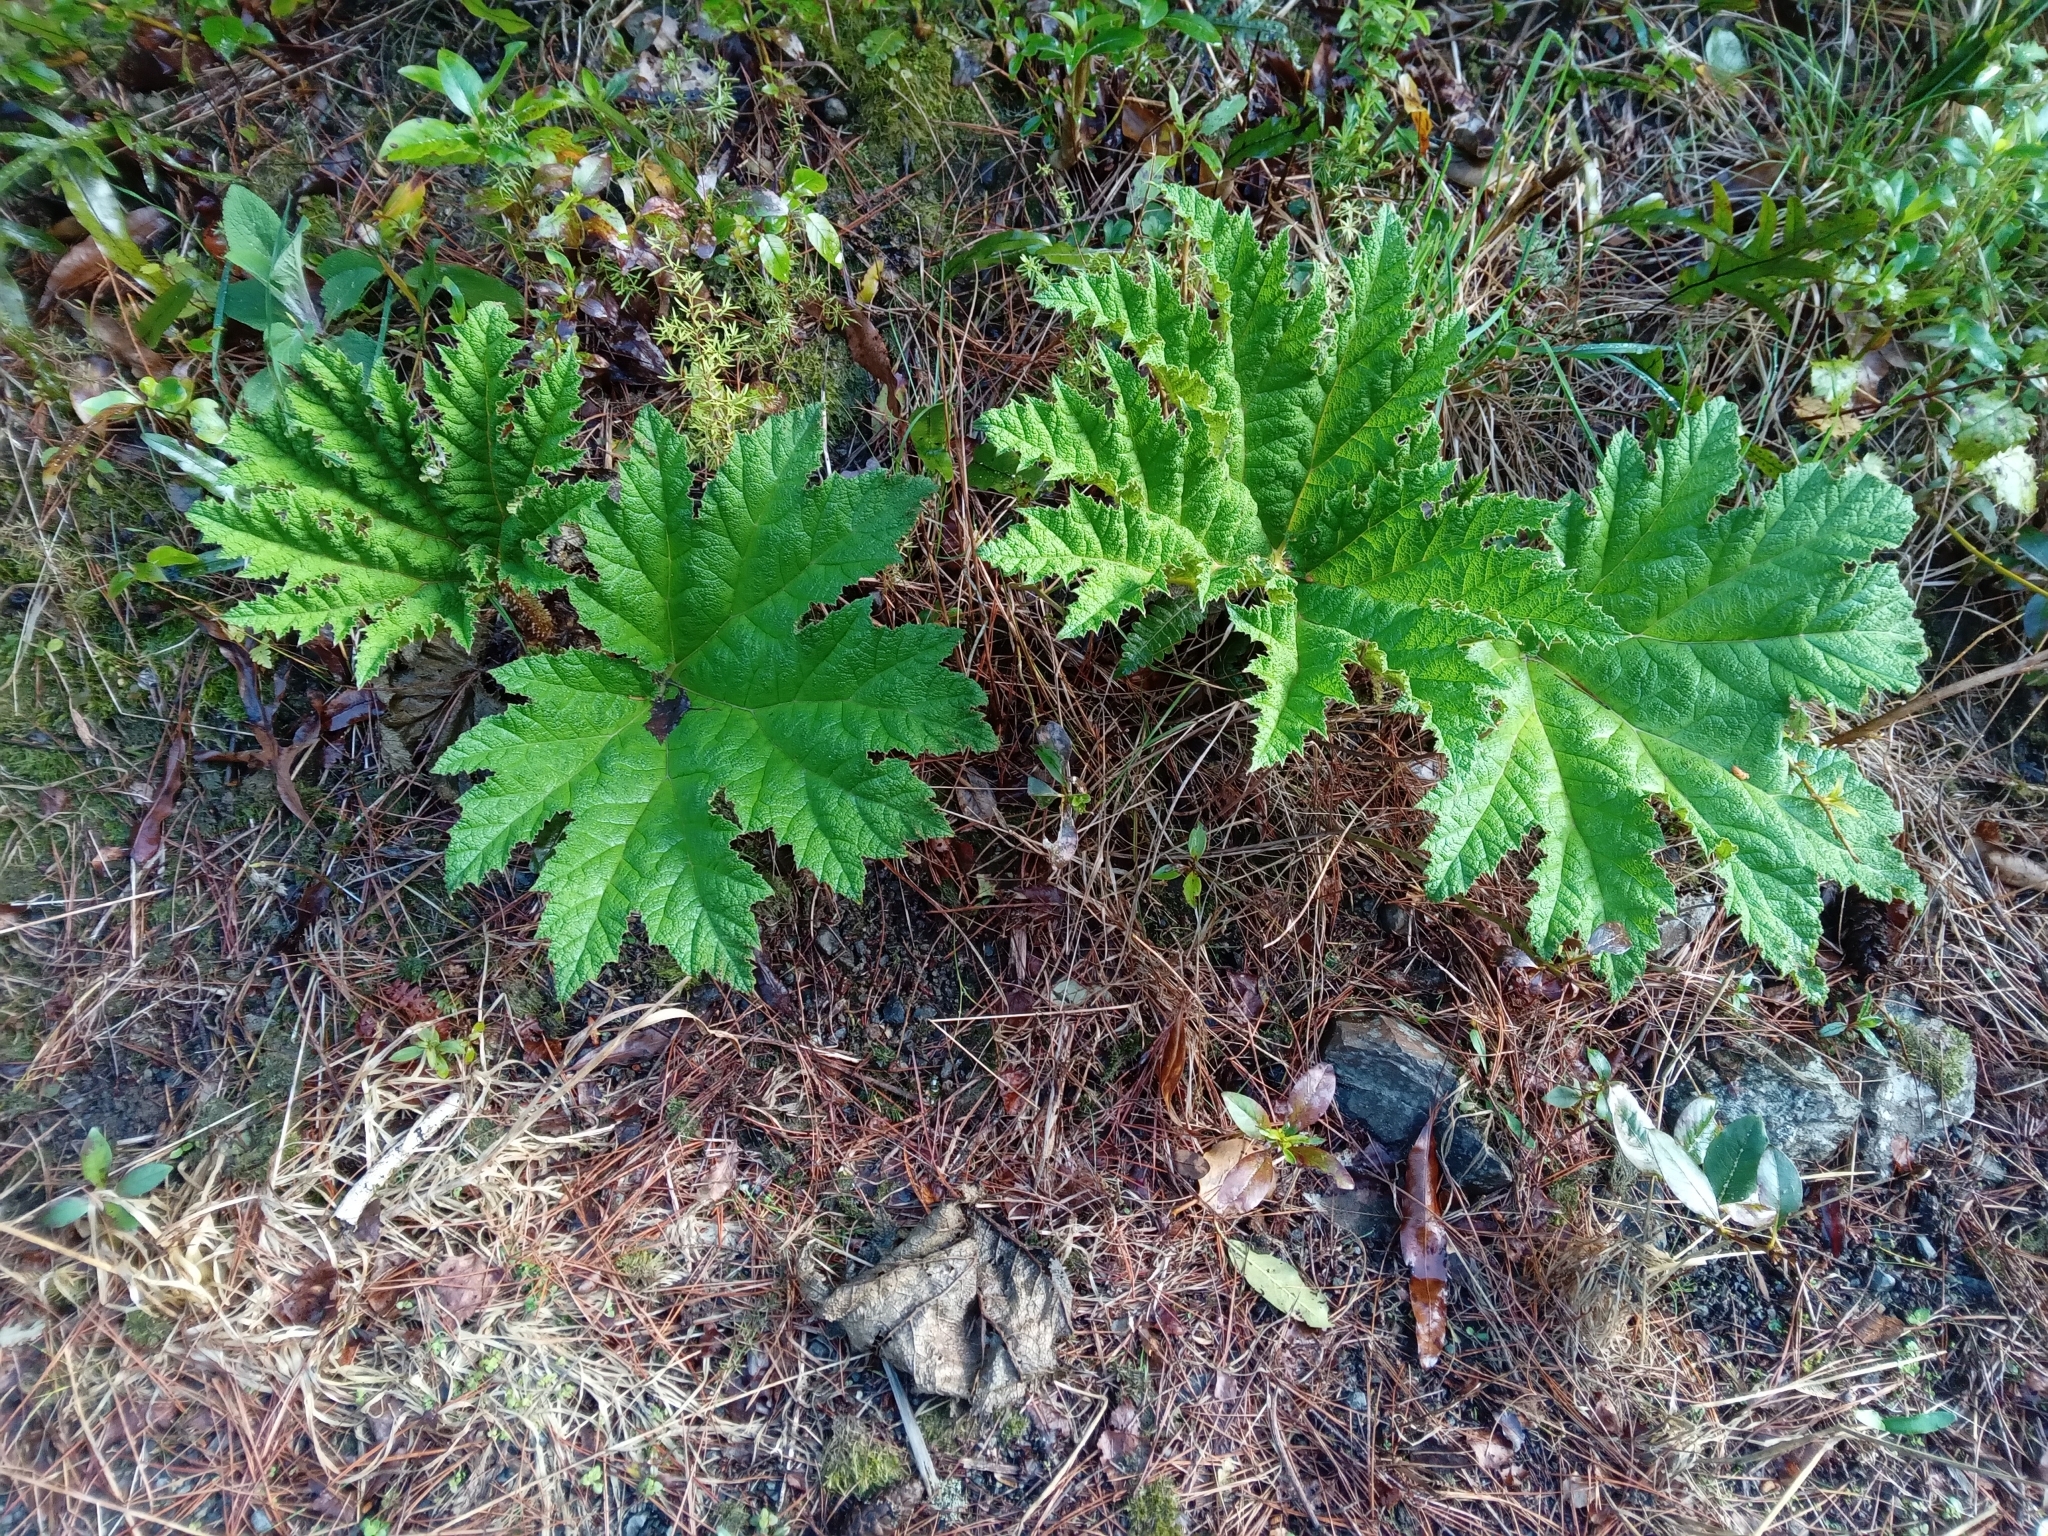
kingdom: Plantae
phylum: Tracheophyta
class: Magnoliopsida
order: Gunnerales
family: Gunneraceae
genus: Gunnera
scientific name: Gunnera tinctoria
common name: Giant-rhubarb
